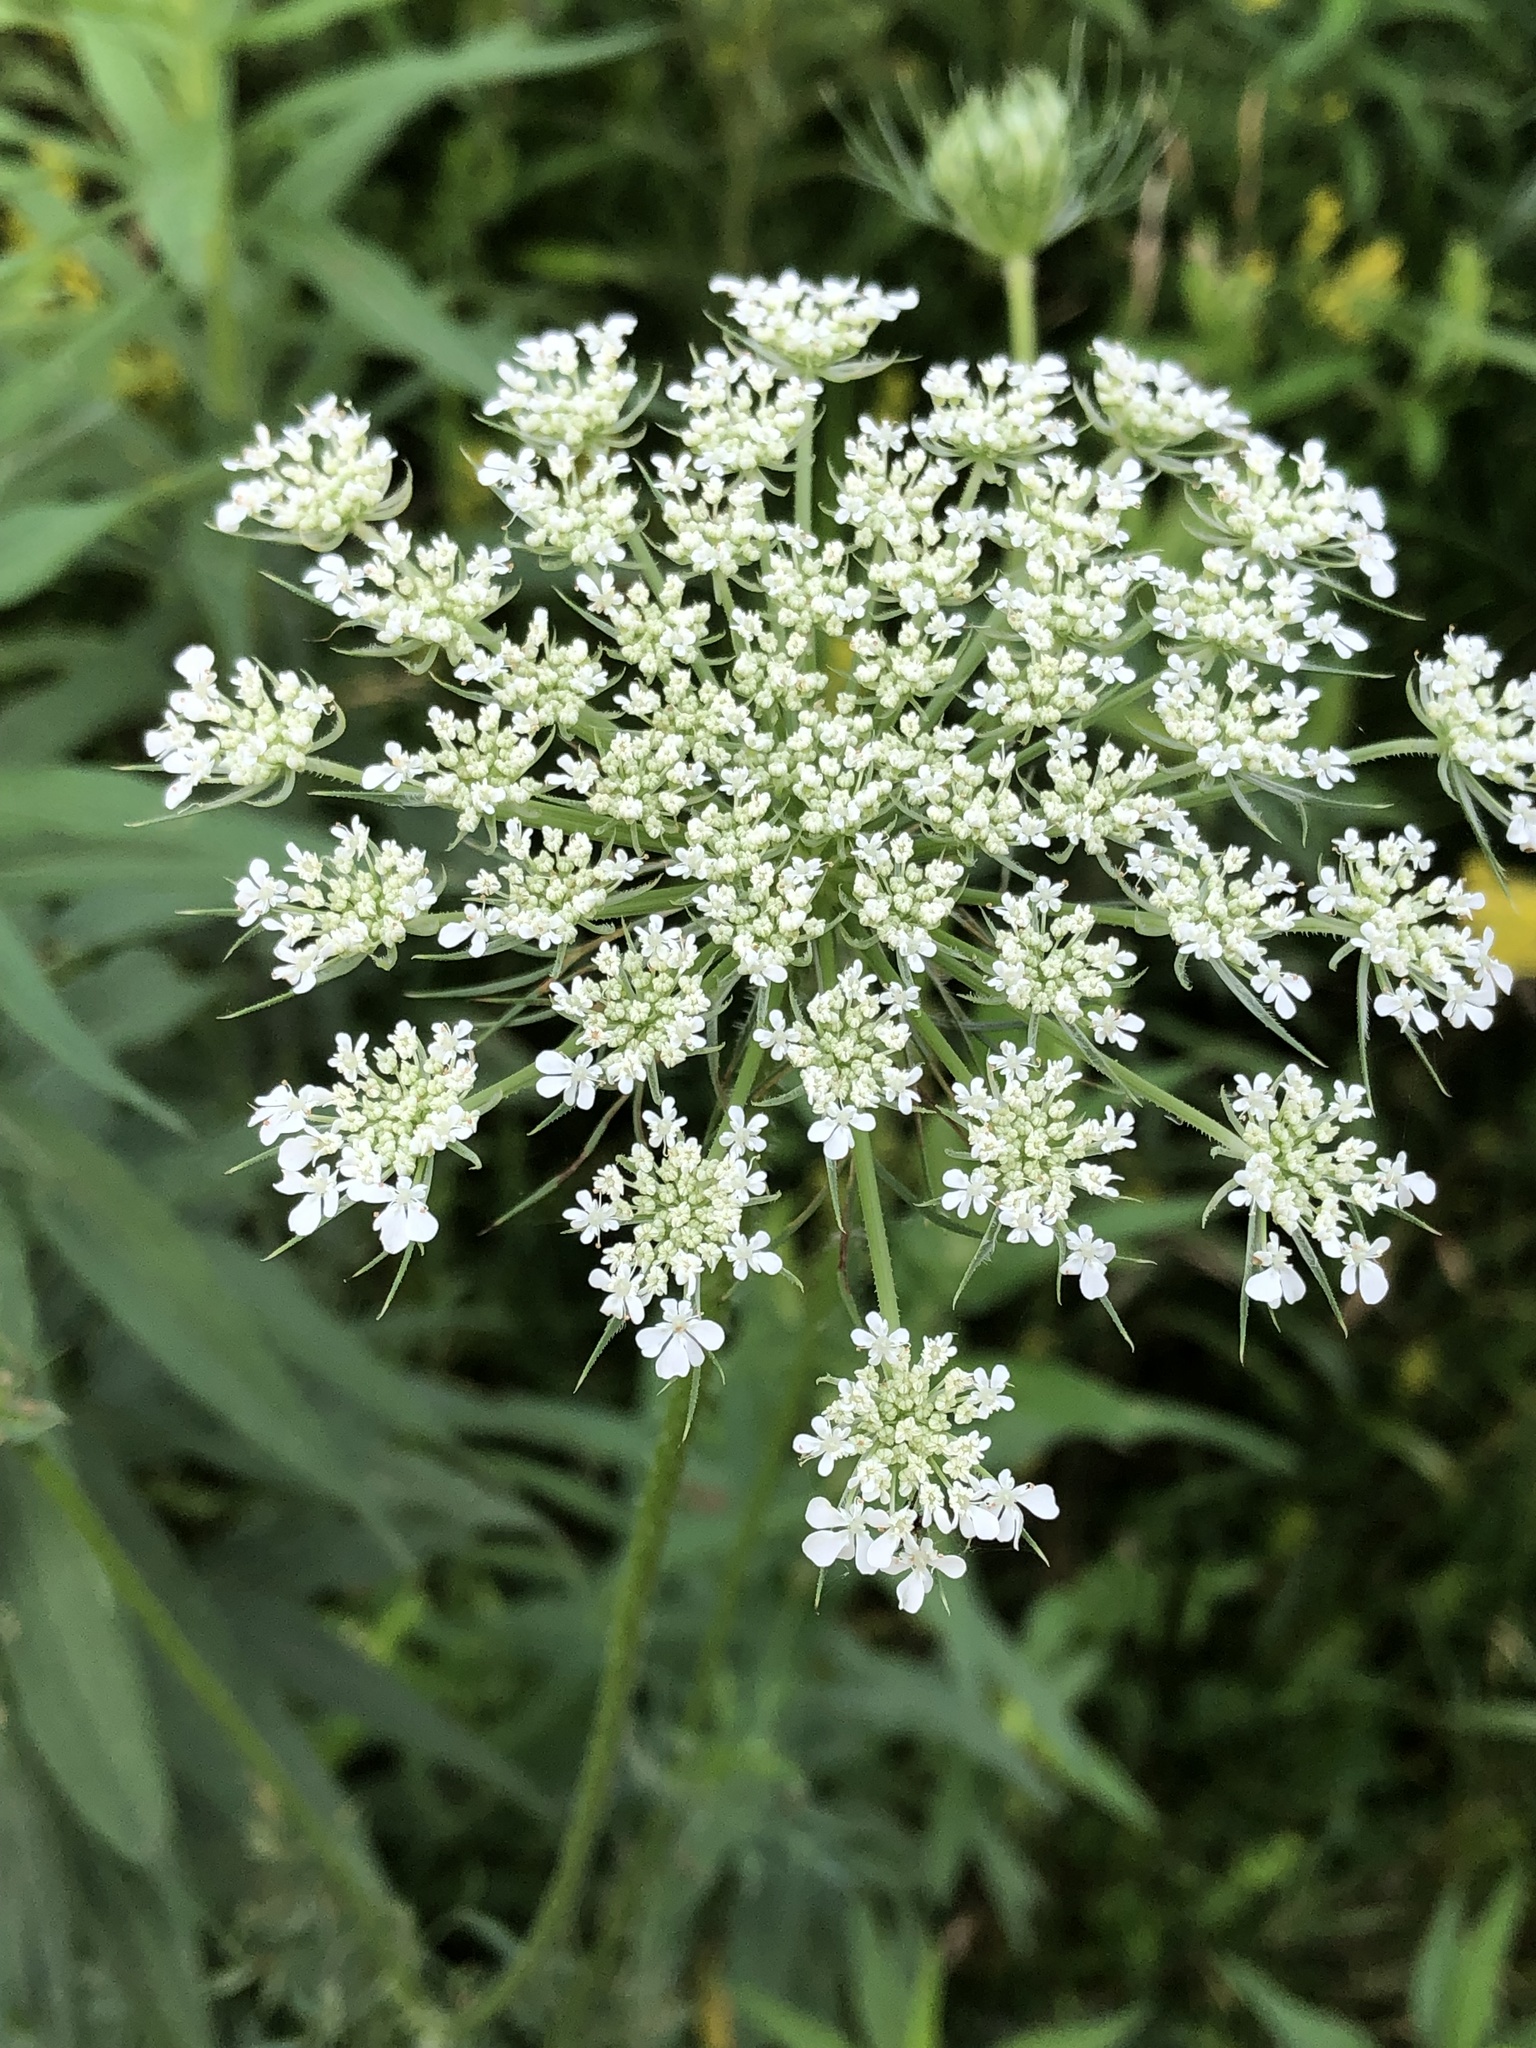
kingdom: Plantae
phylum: Tracheophyta
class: Magnoliopsida
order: Apiales
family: Apiaceae
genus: Daucus
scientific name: Daucus carota
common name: Wild carrot
